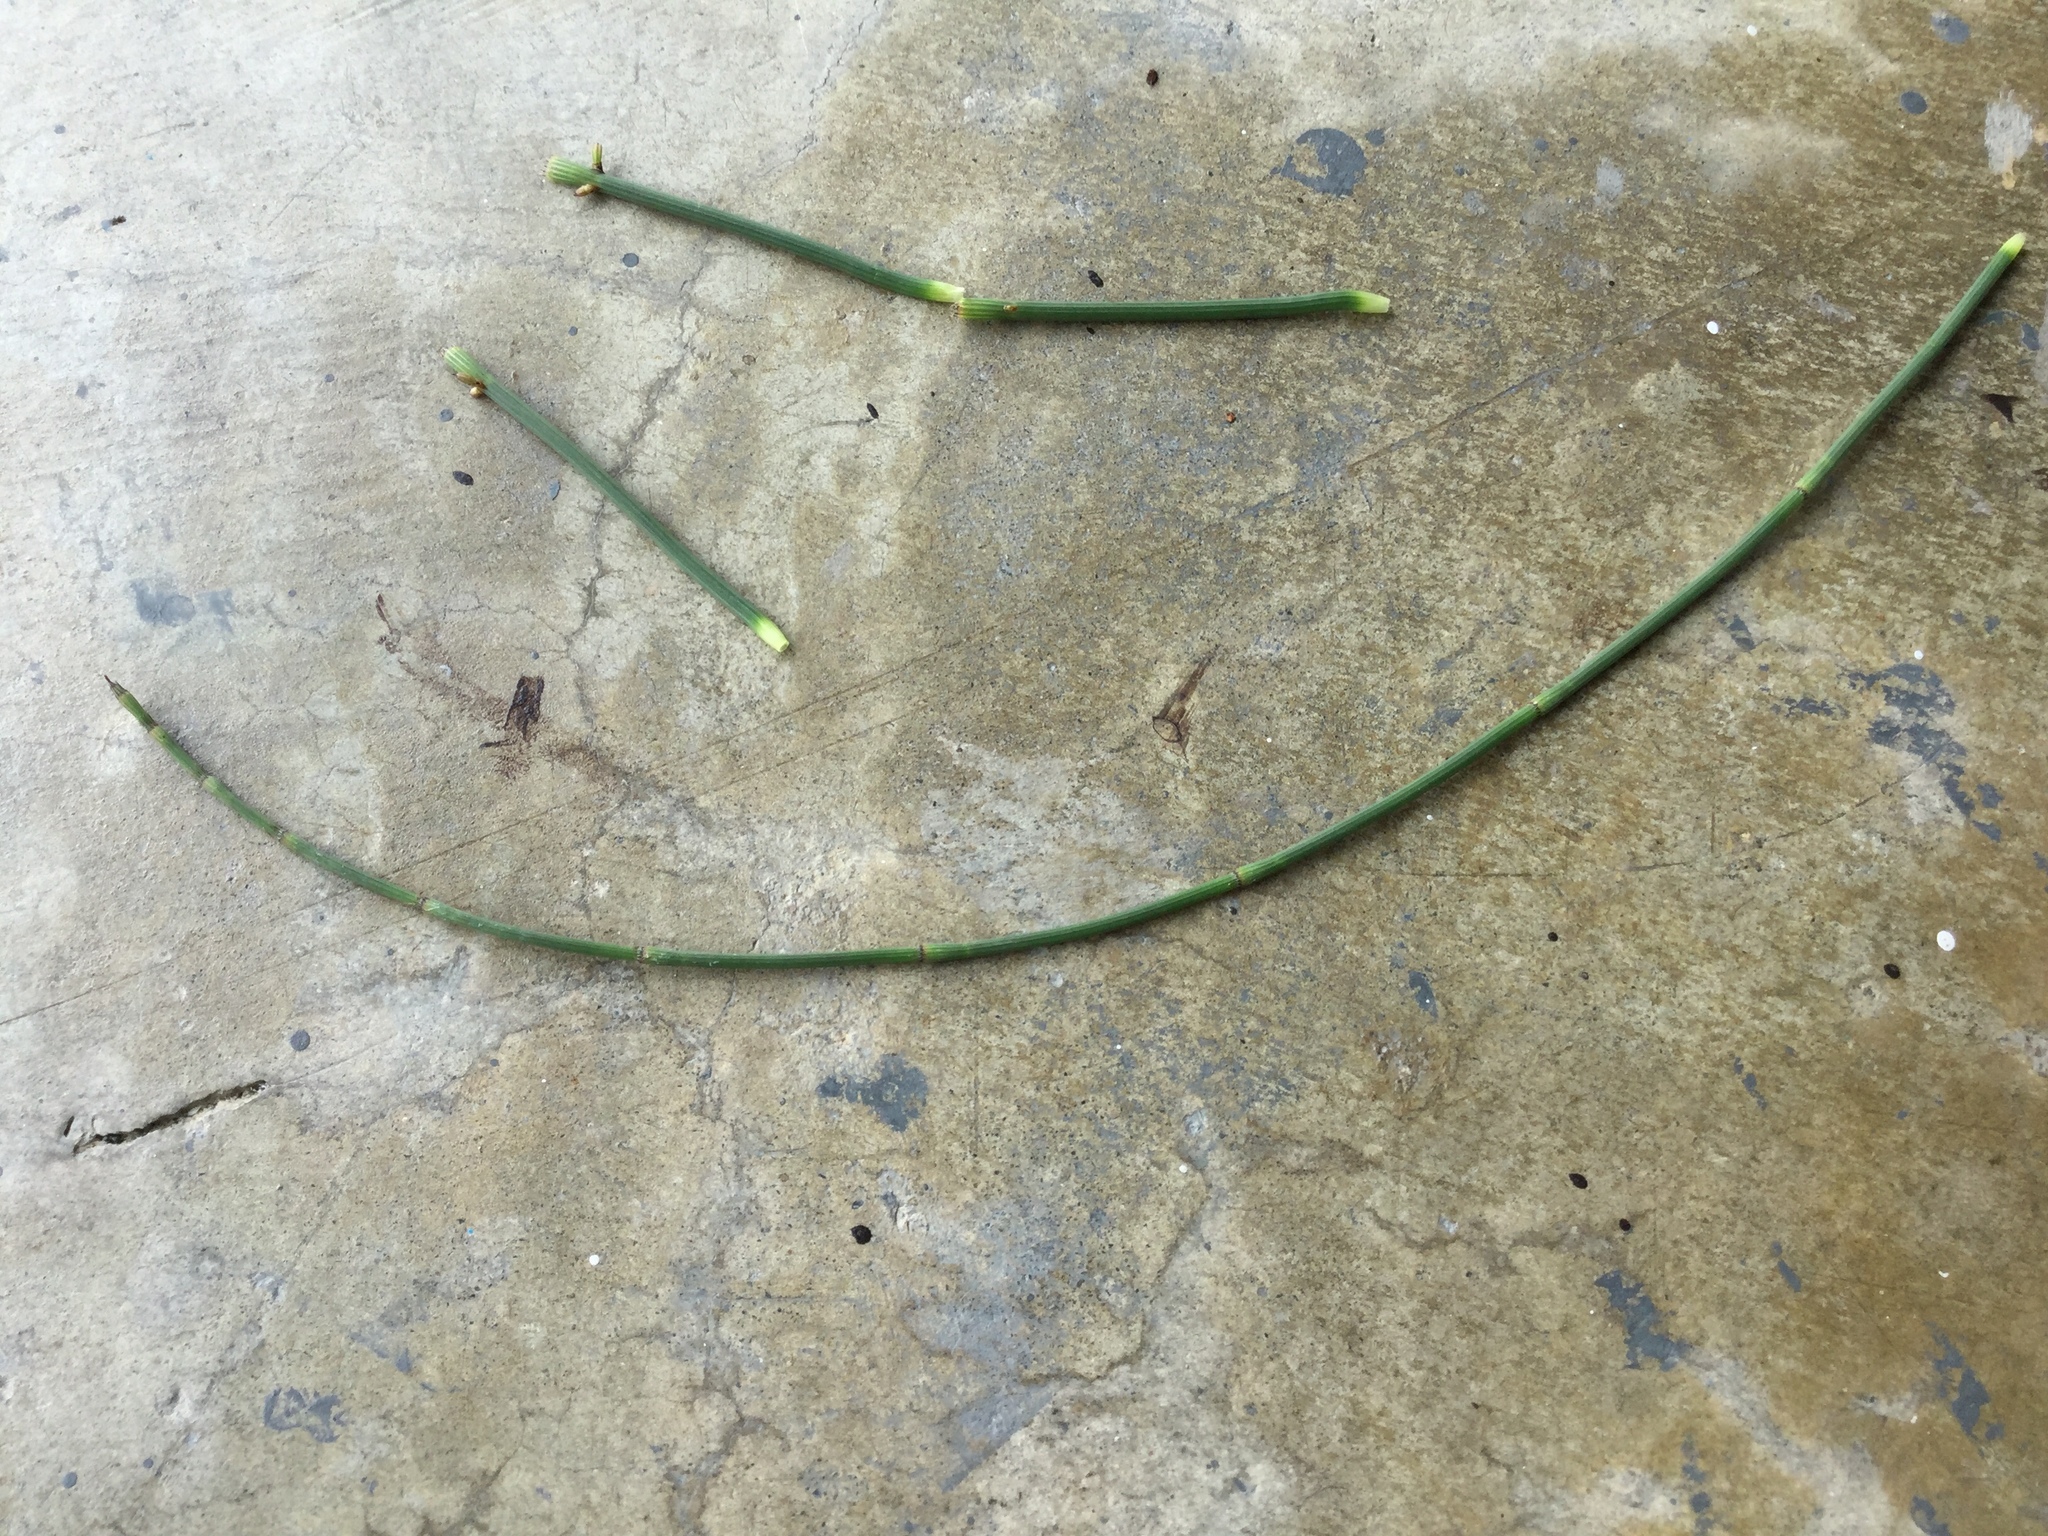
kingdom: Plantae
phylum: Tracheophyta
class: Polypodiopsida
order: Equisetales
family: Equisetaceae
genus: Equisetum
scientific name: Equisetum ramosissimum
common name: Branched horsetail
